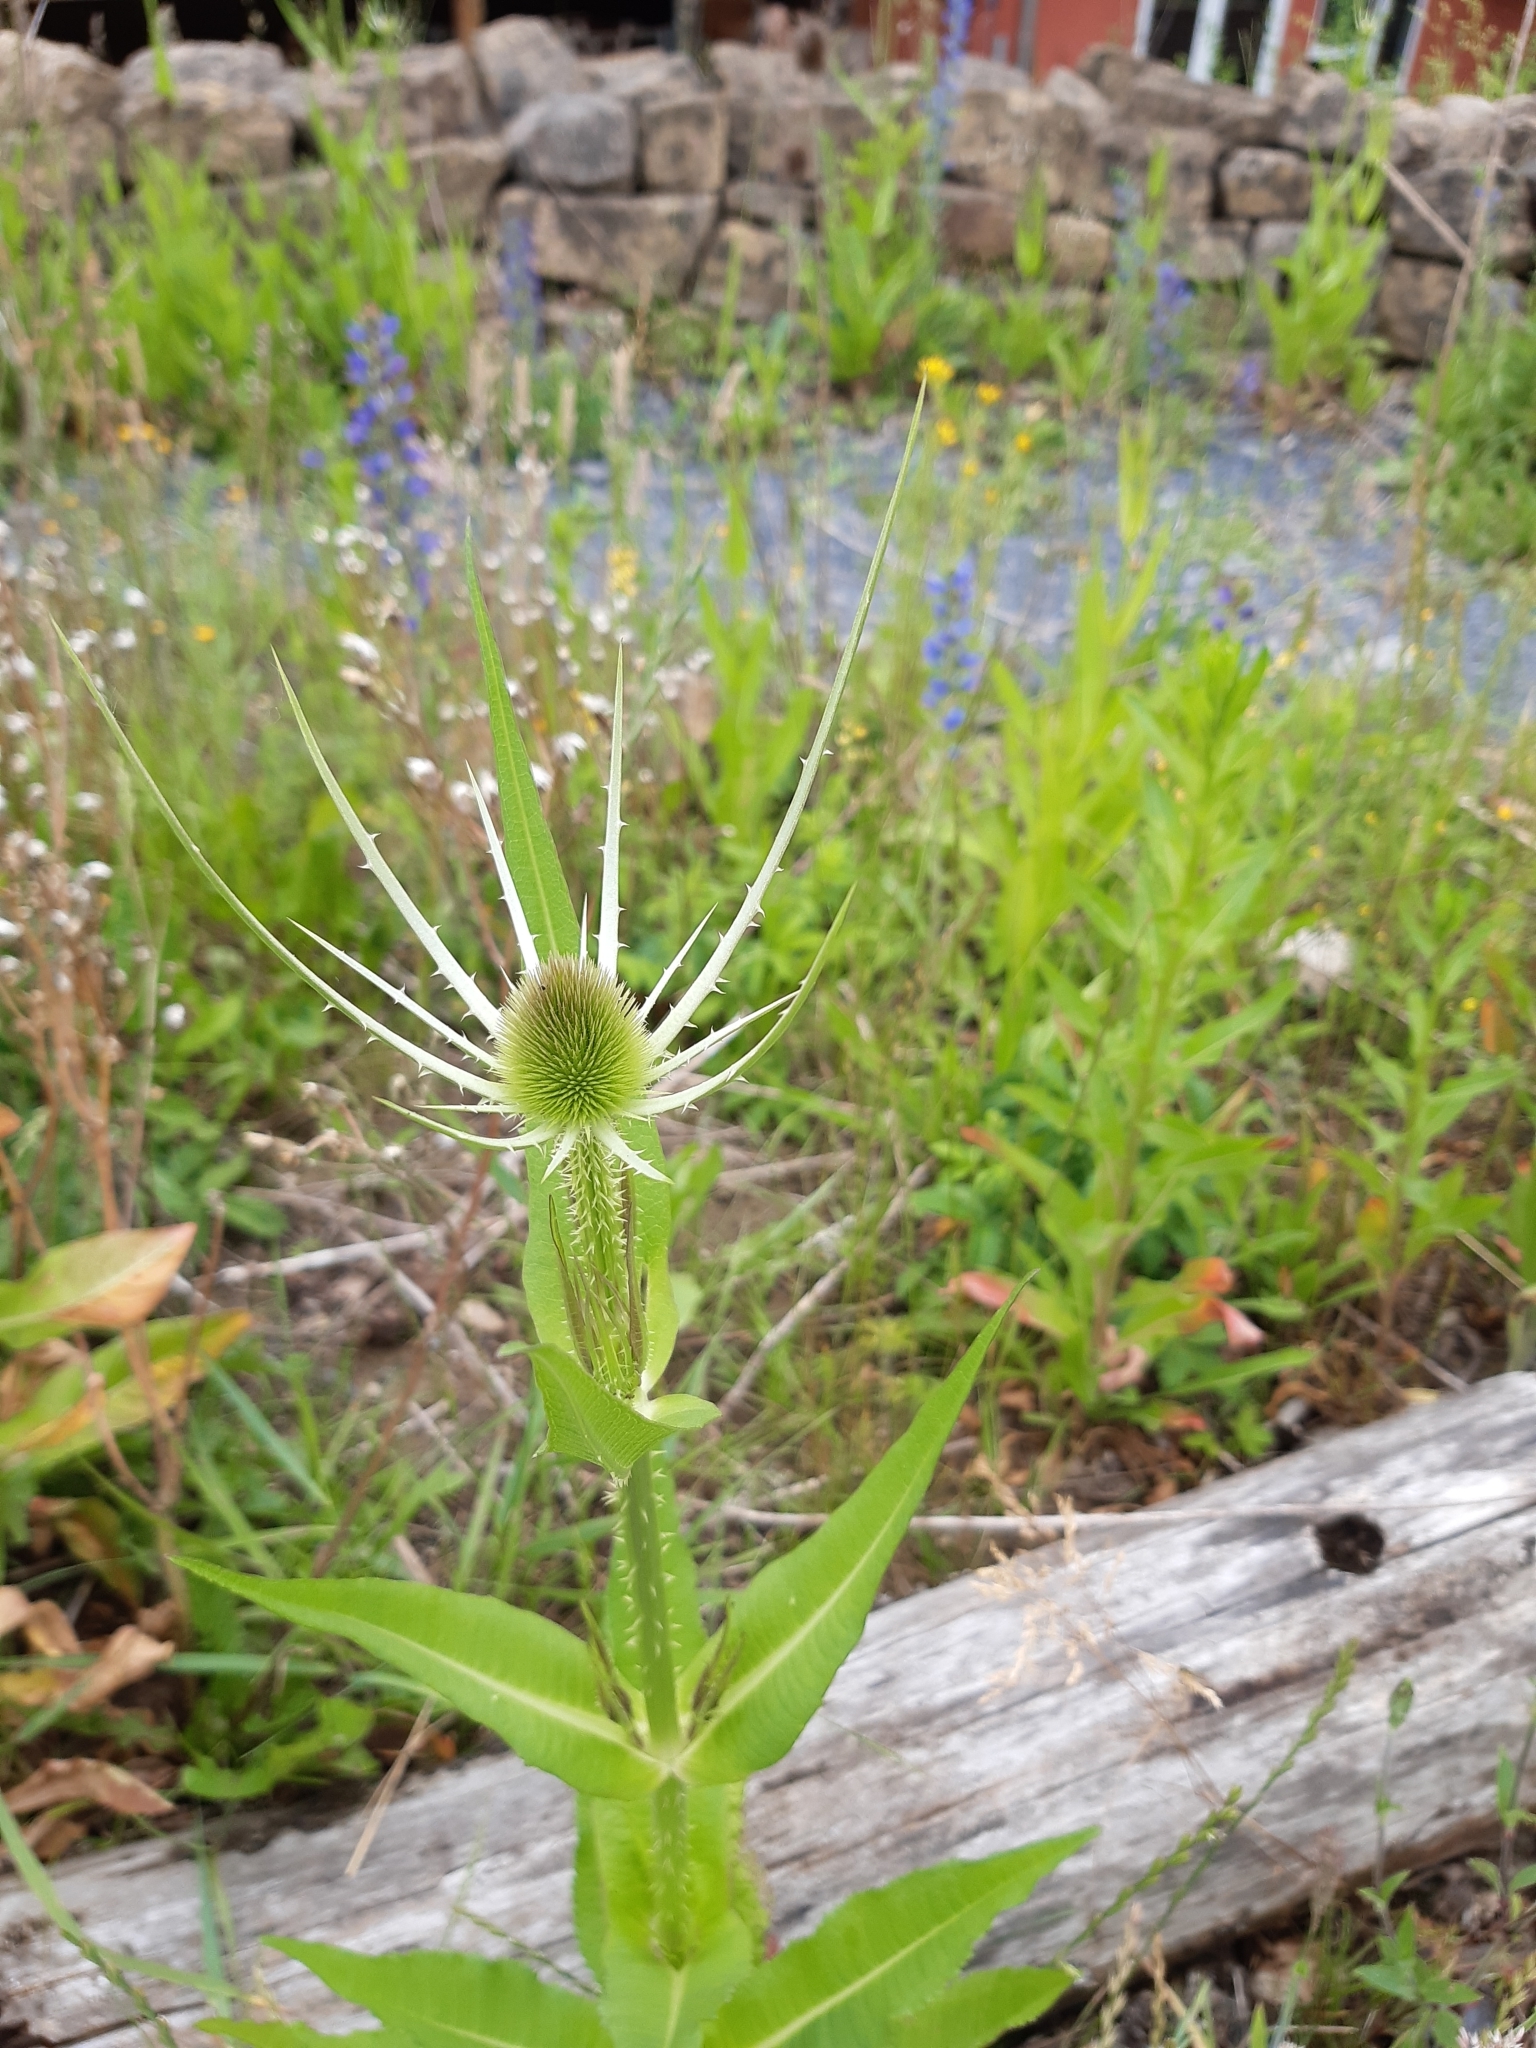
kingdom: Plantae
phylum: Tracheophyta
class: Magnoliopsida
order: Dipsacales
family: Caprifoliaceae
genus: Dipsacus
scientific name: Dipsacus fullonum
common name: Teasel
